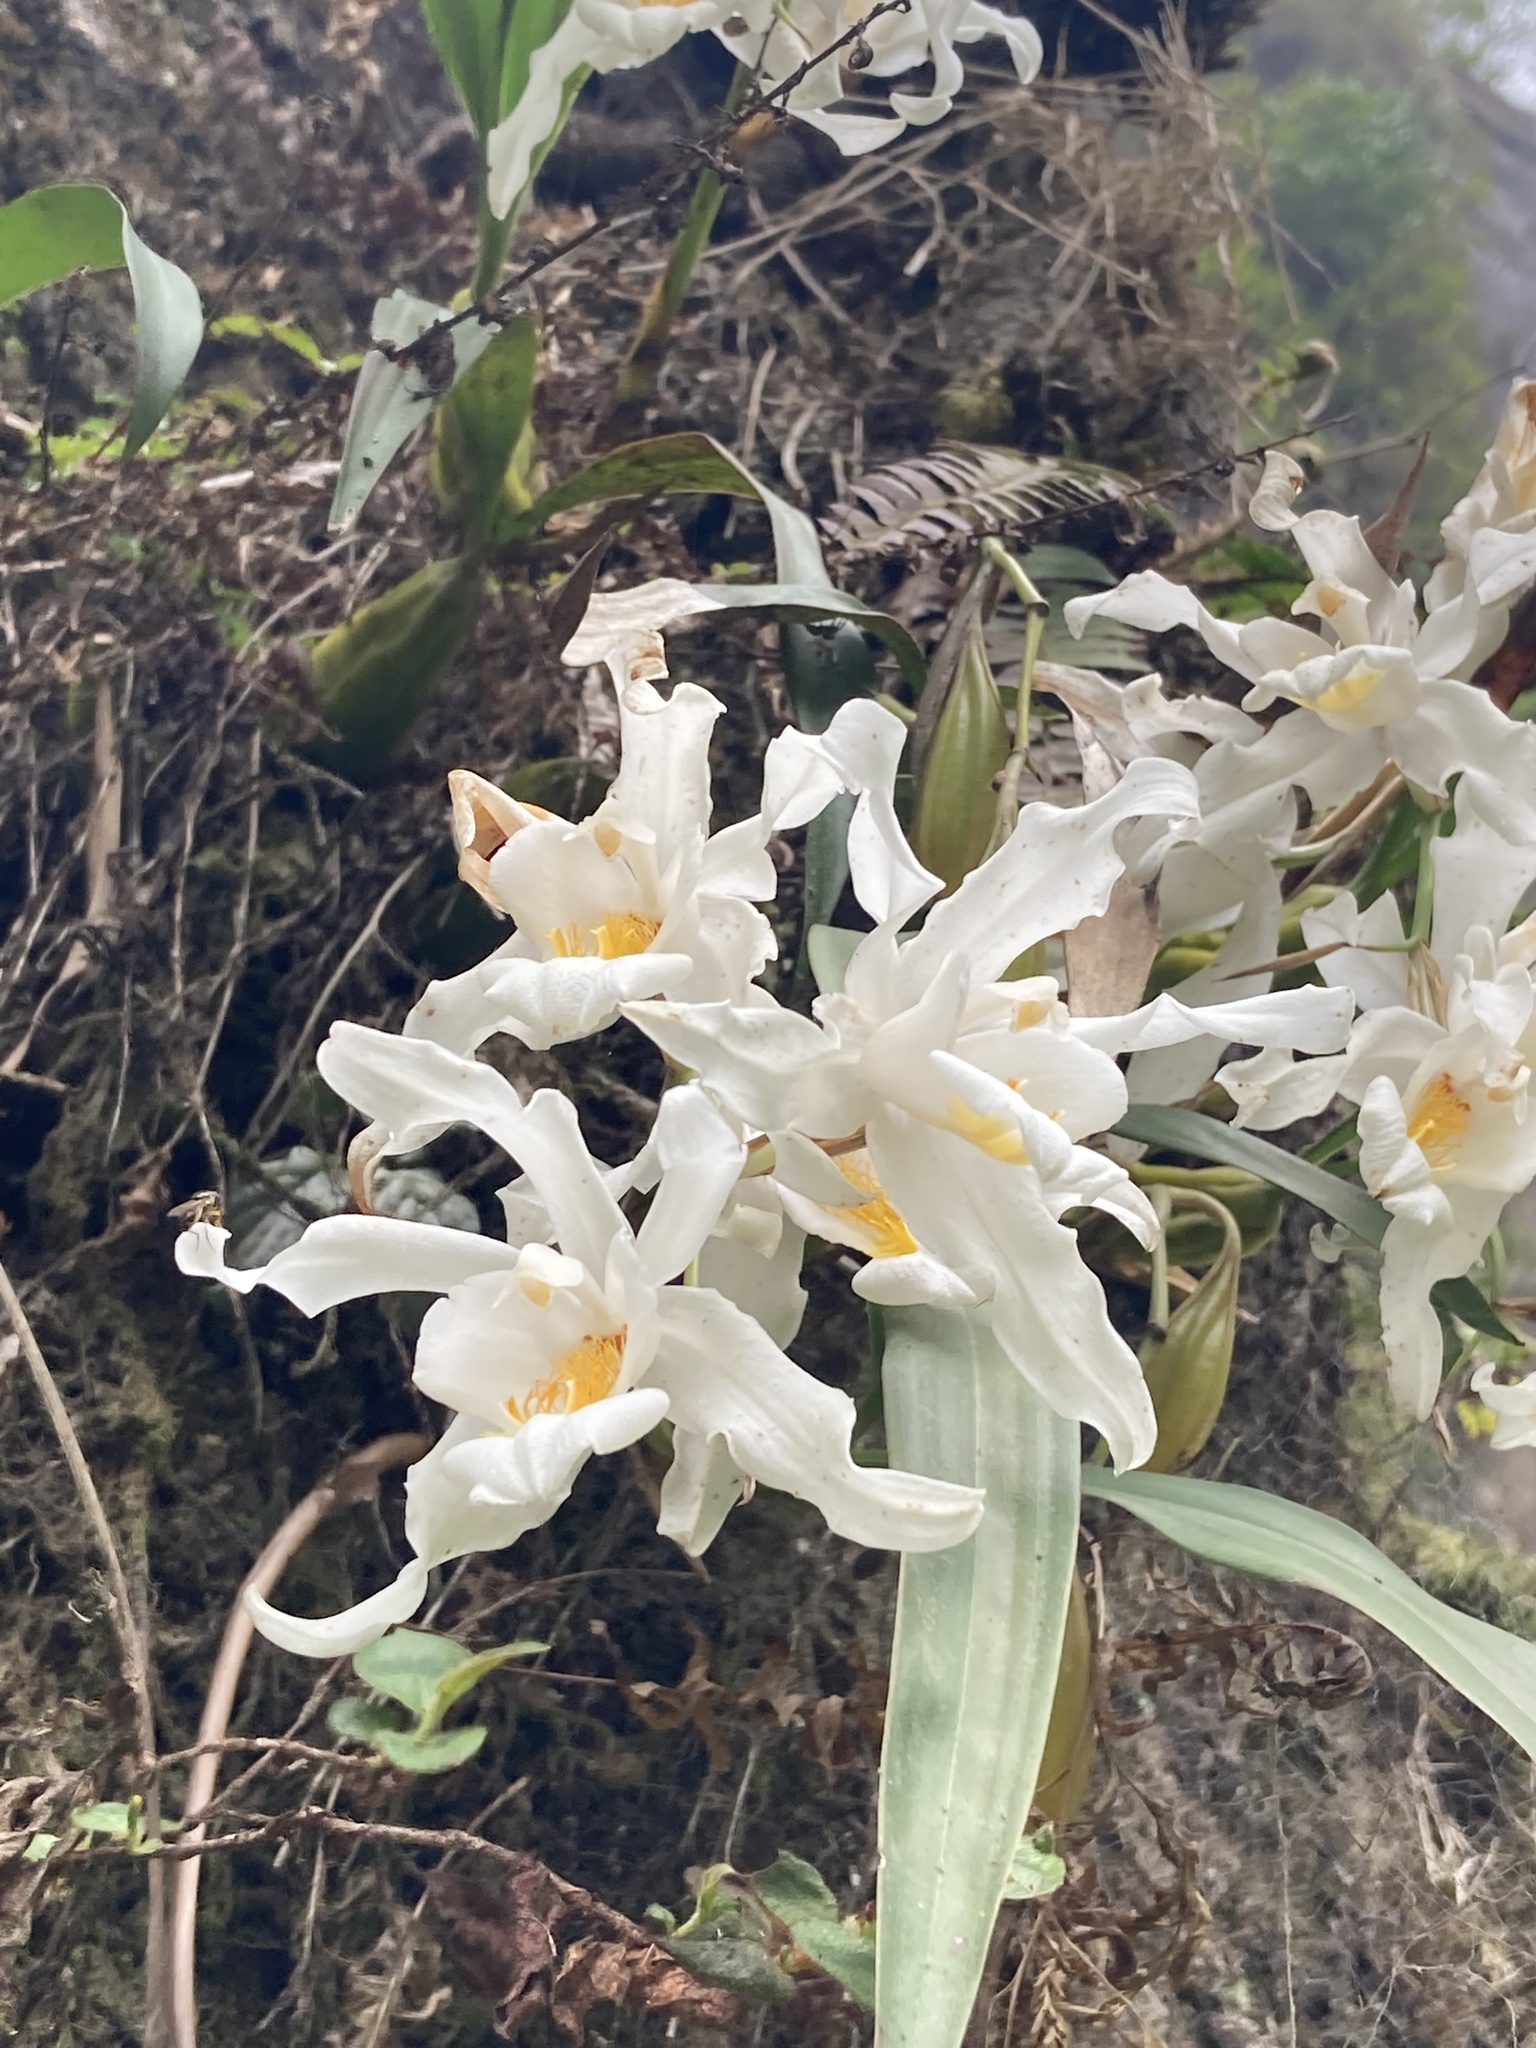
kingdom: Plantae
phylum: Tracheophyta
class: Liliopsida
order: Asparagales
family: Orchidaceae
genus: Coelogyne
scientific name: Coelogyne cristata
